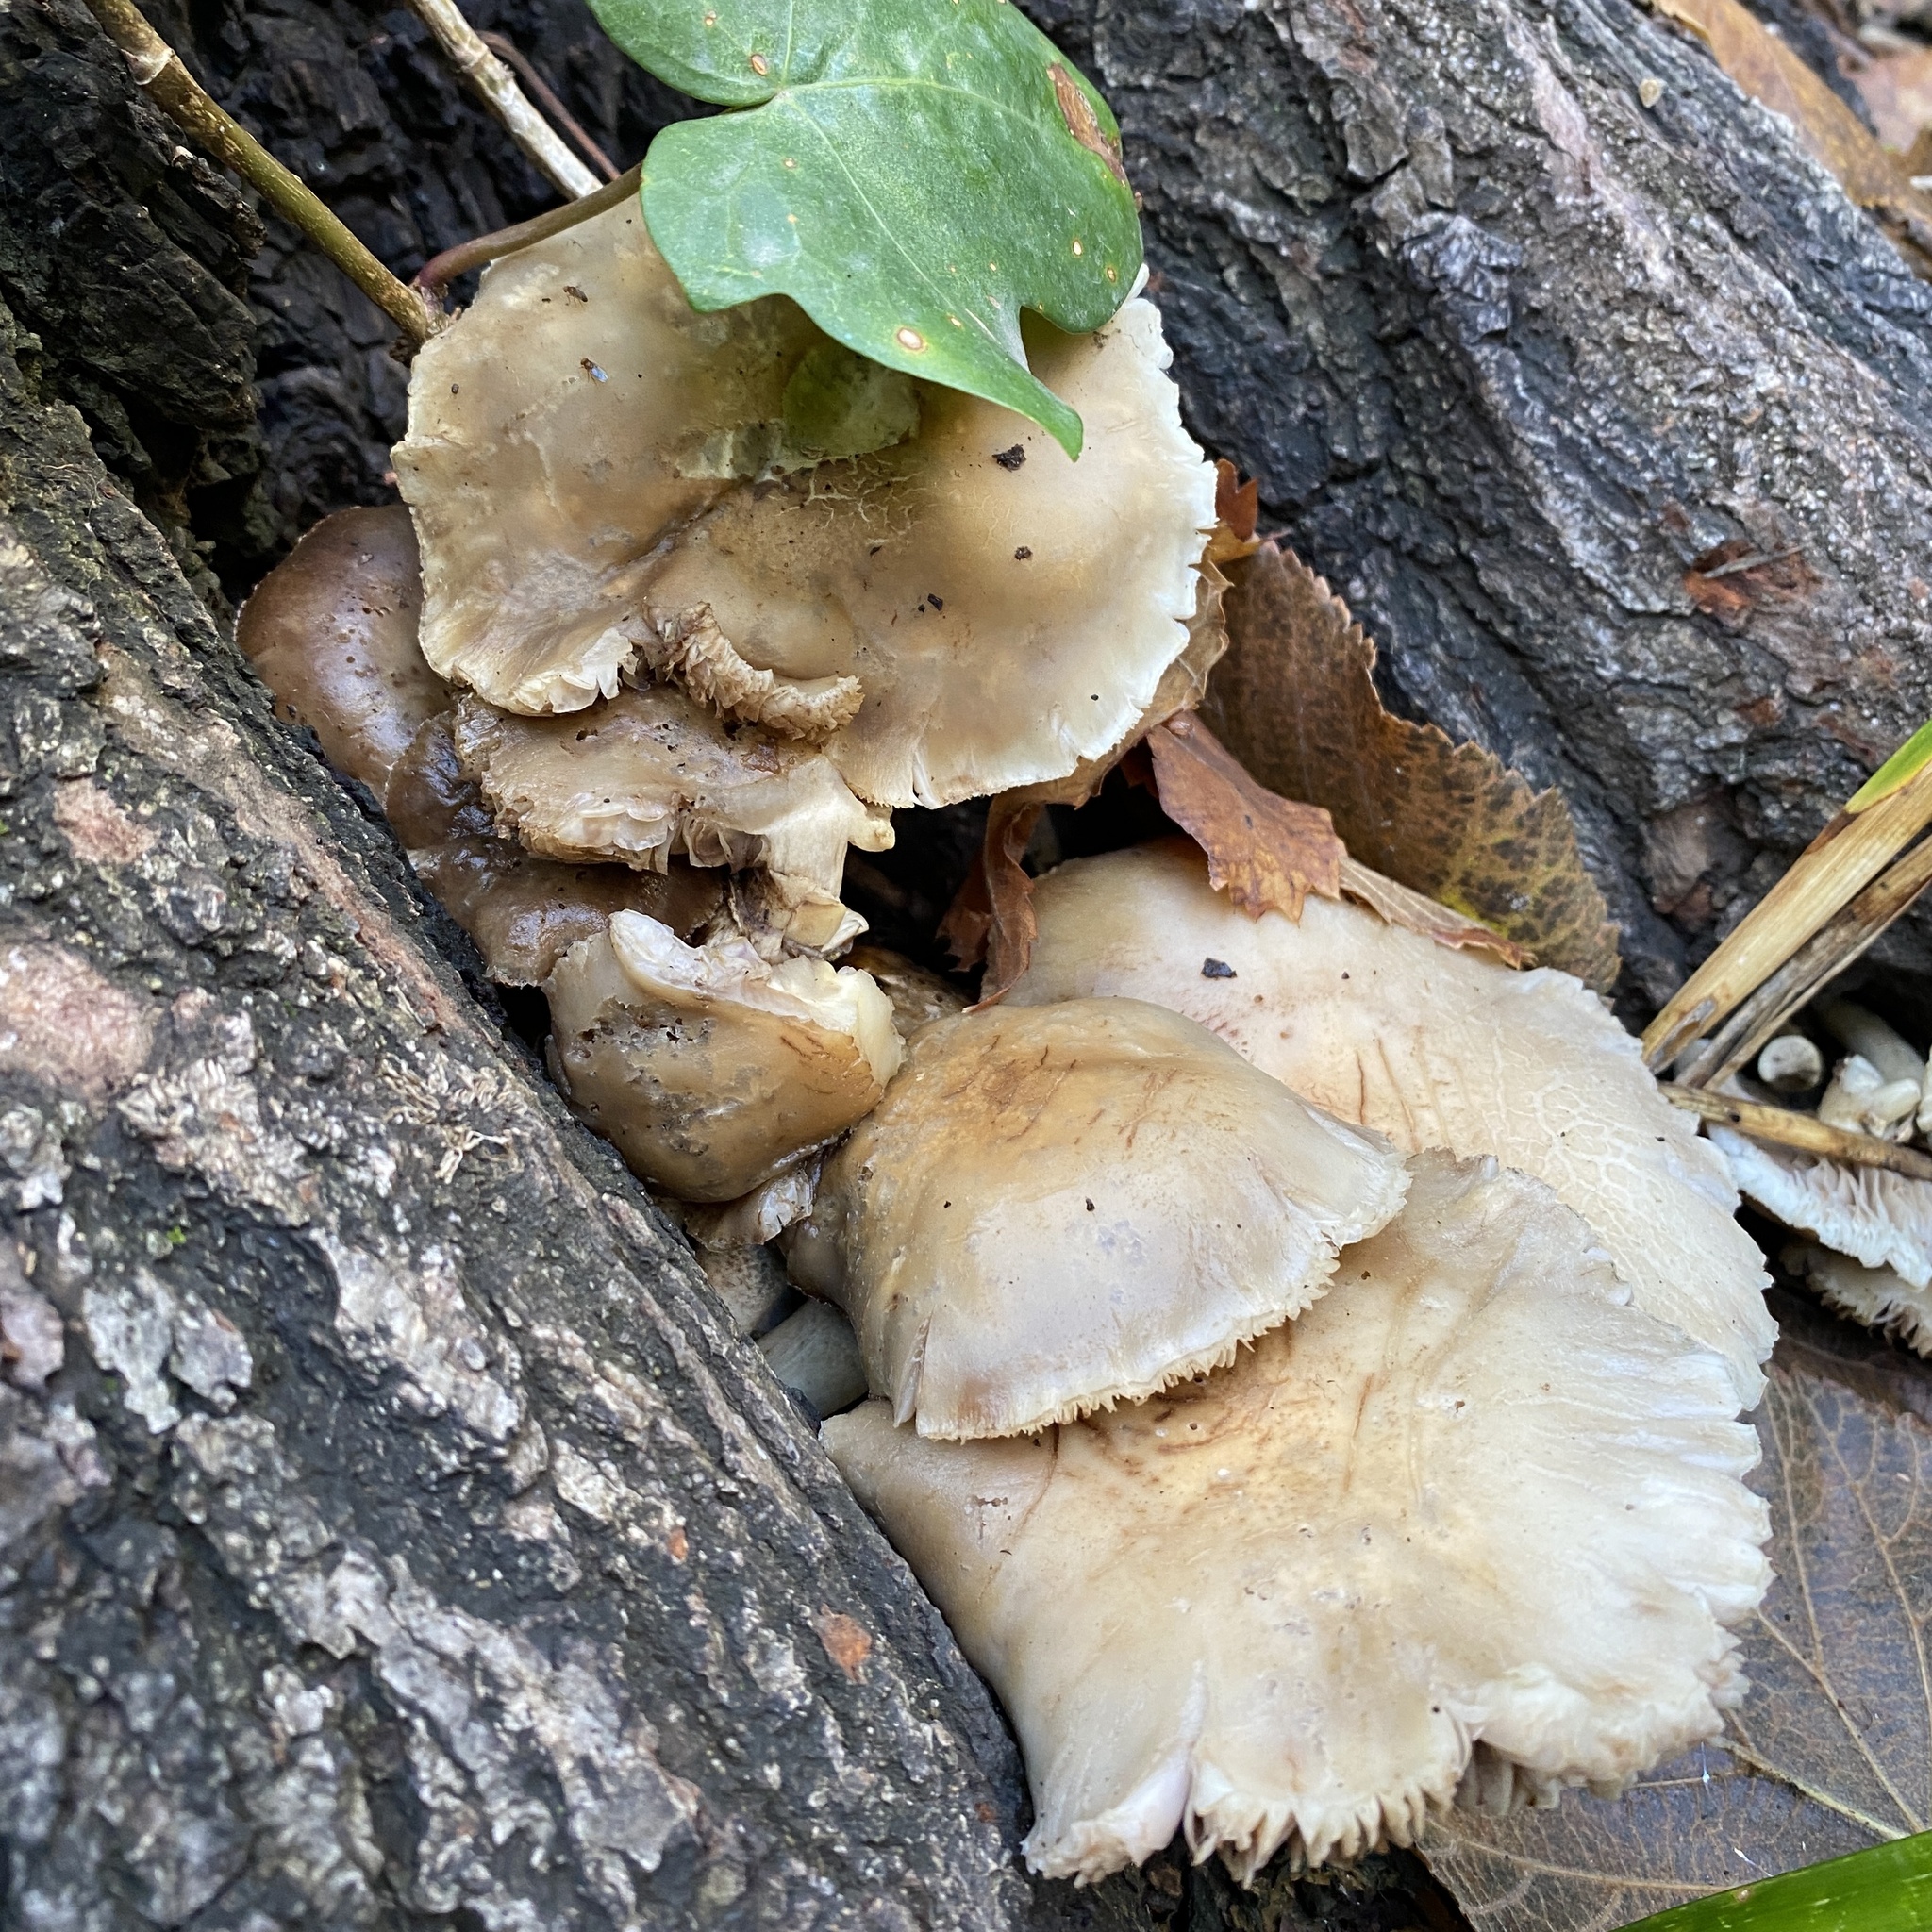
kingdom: Fungi
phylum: Basidiomycota
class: Agaricomycetes
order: Agaricales
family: Tubariaceae
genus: Cyclocybe
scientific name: Cyclocybe cylindracea
